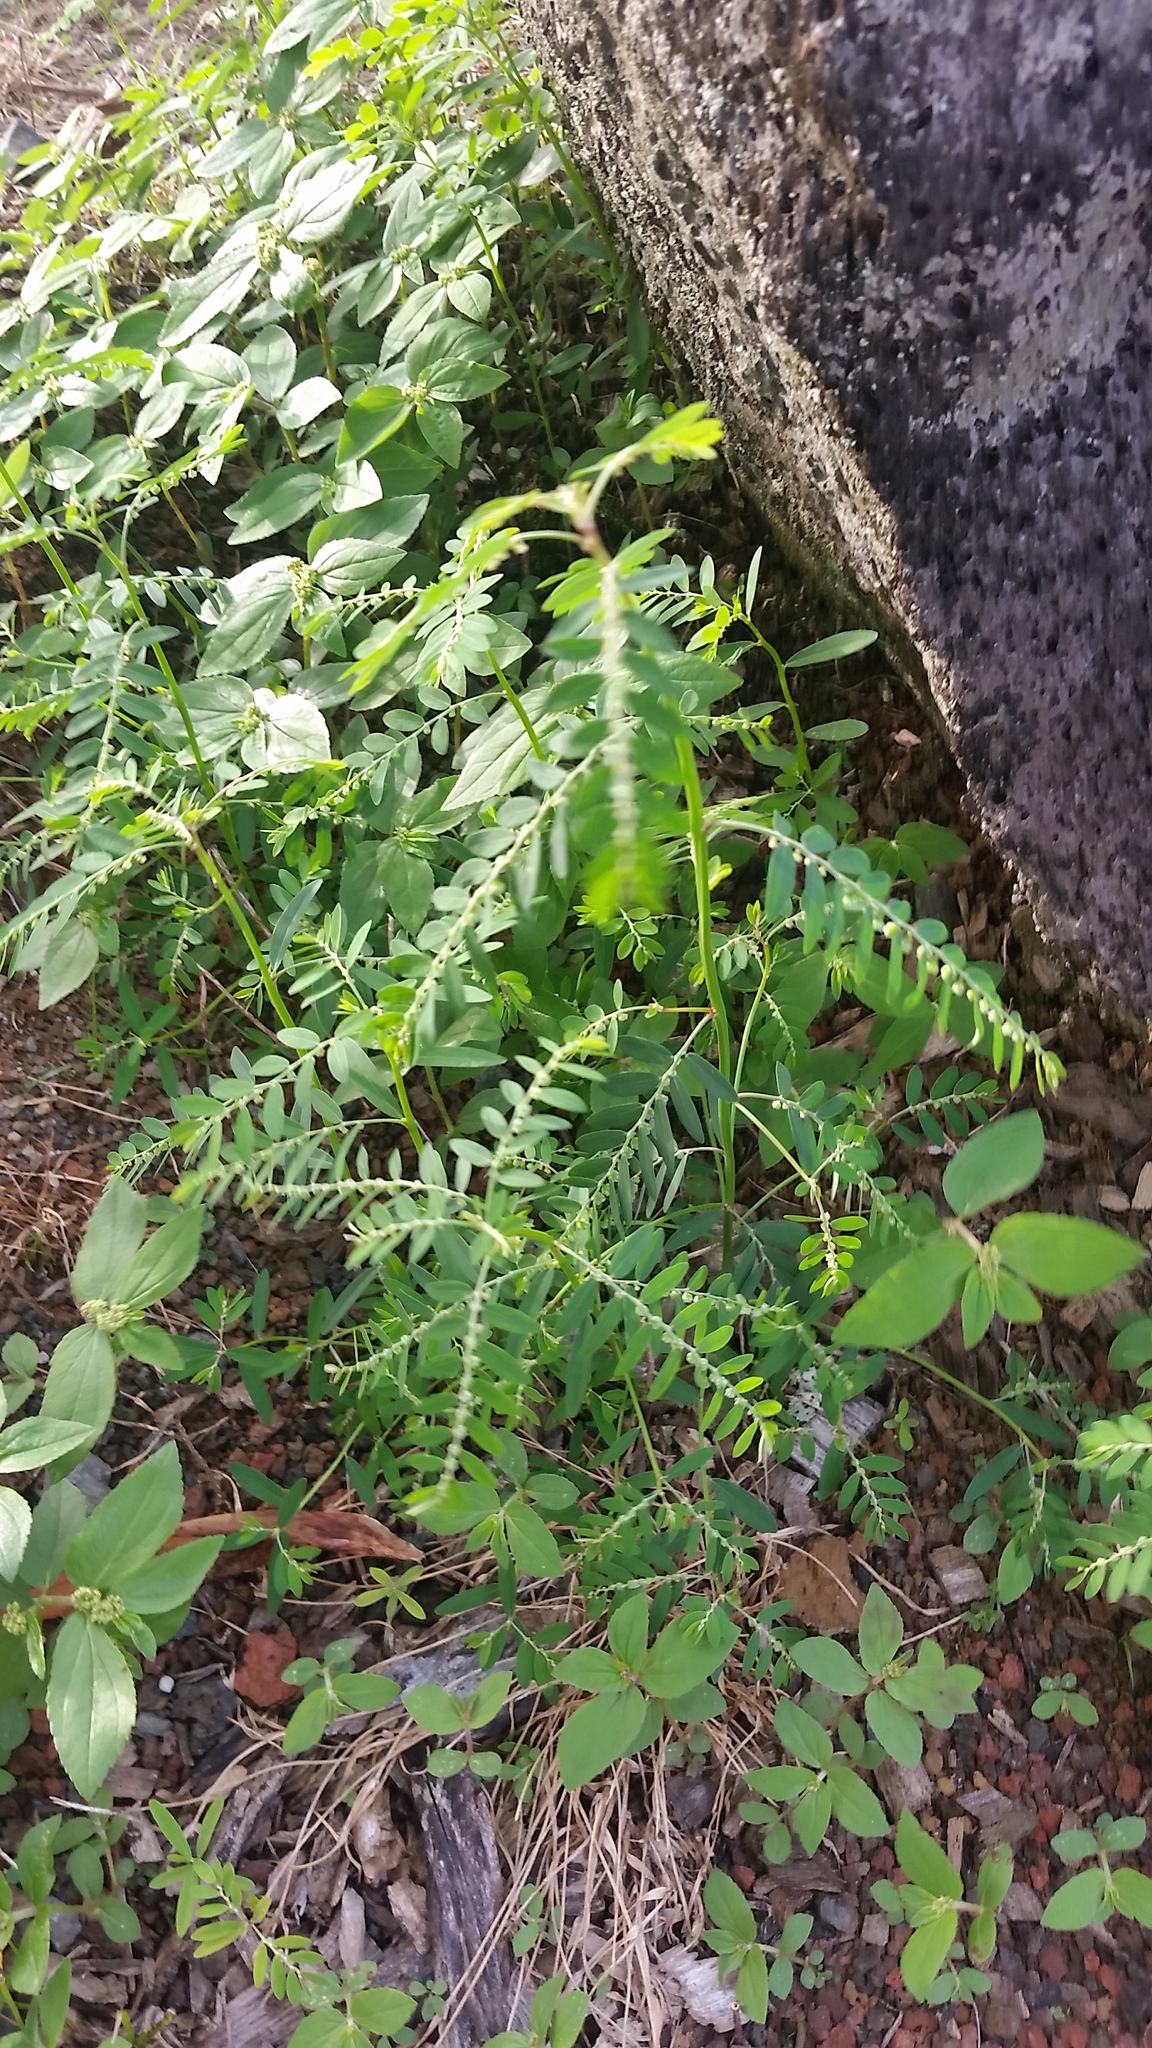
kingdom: Plantae
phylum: Tracheophyta
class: Magnoliopsida
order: Malpighiales
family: Phyllanthaceae
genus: Phyllanthus
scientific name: Phyllanthus debilis
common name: Niruri
